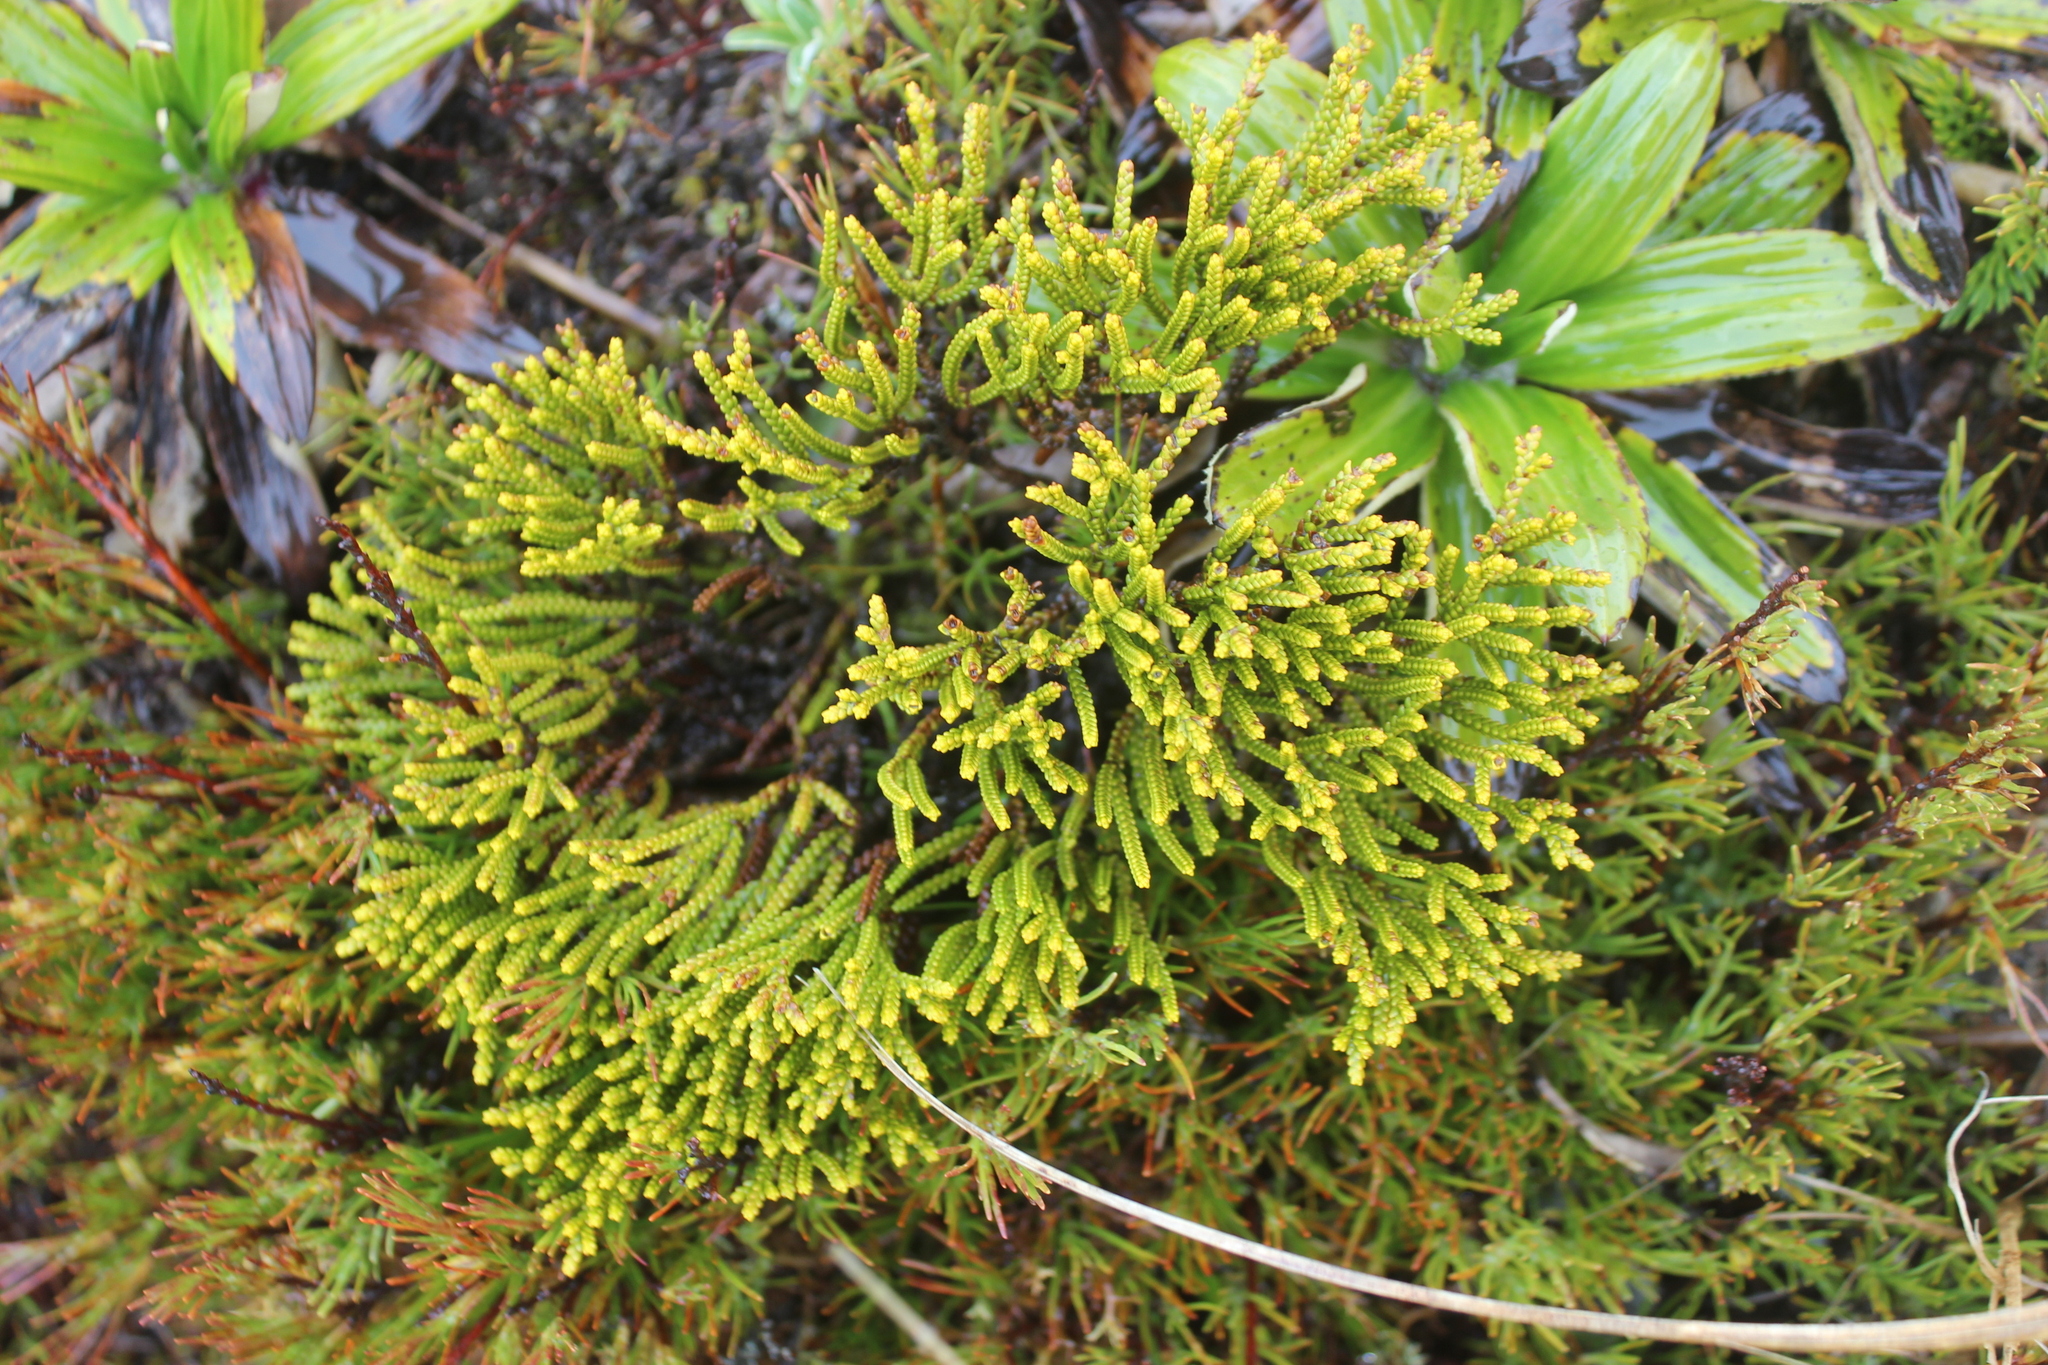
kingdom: Plantae
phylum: Tracheophyta
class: Magnoliopsida
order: Lamiales
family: Plantaginaceae
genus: Veronica
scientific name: Veronica tetragona
